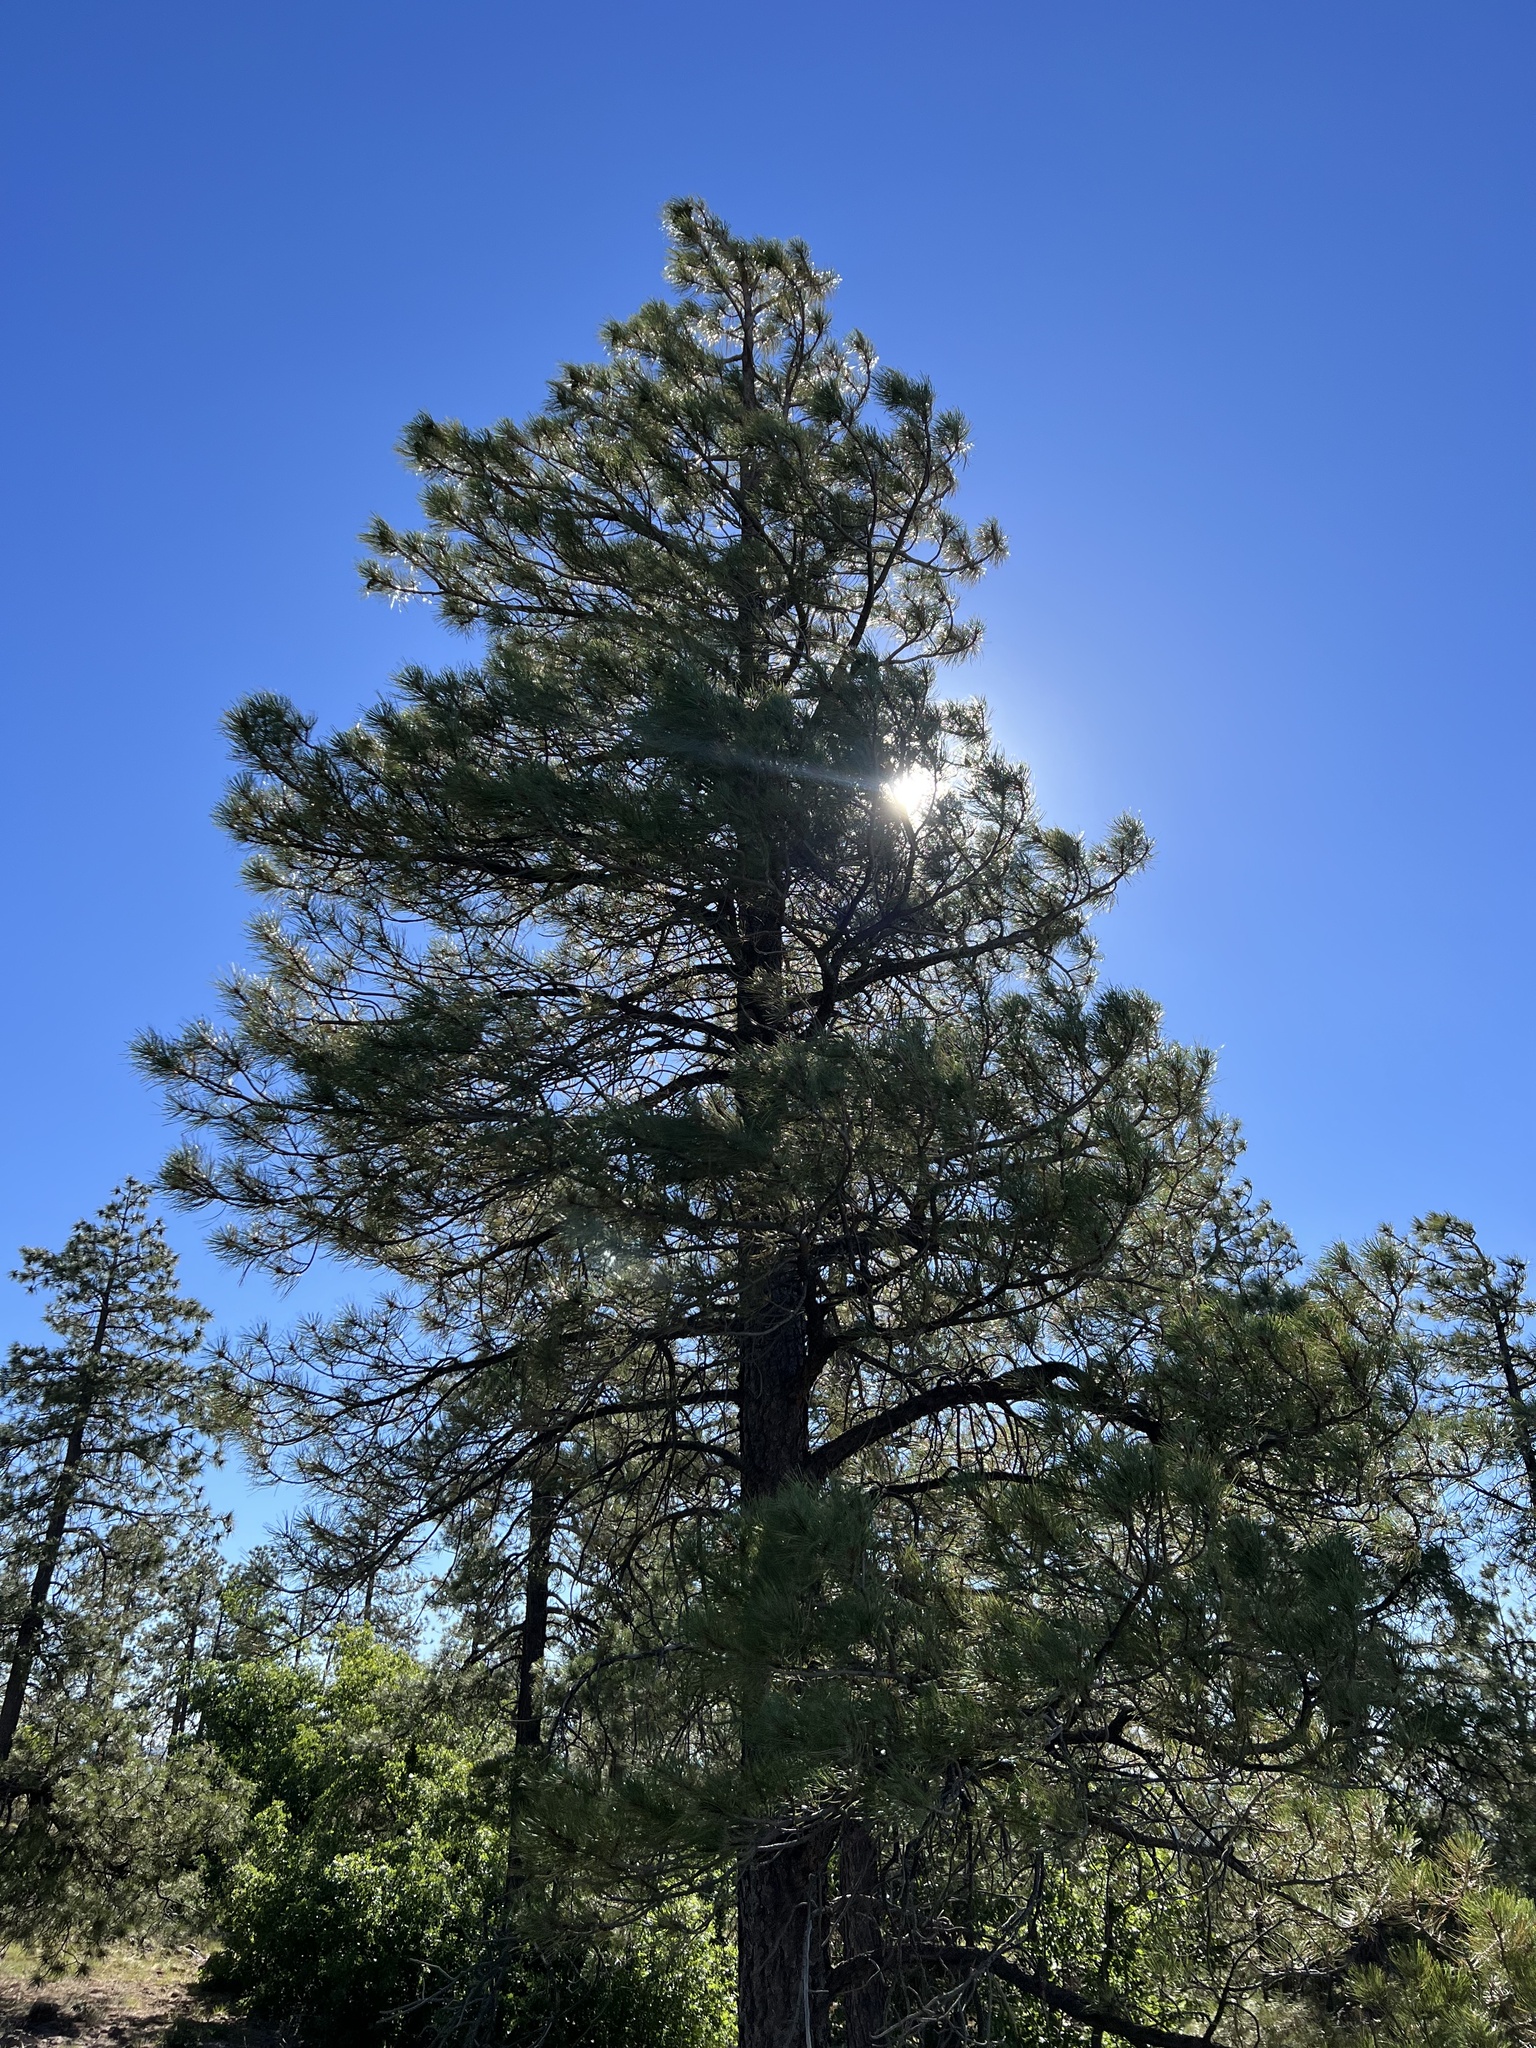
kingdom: Plantae
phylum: Tracheophyta
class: Pinopsida
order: Pinales
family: Pinaceae
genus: Pinus
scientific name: Pinus ponderosa
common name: Western yellow-pine
